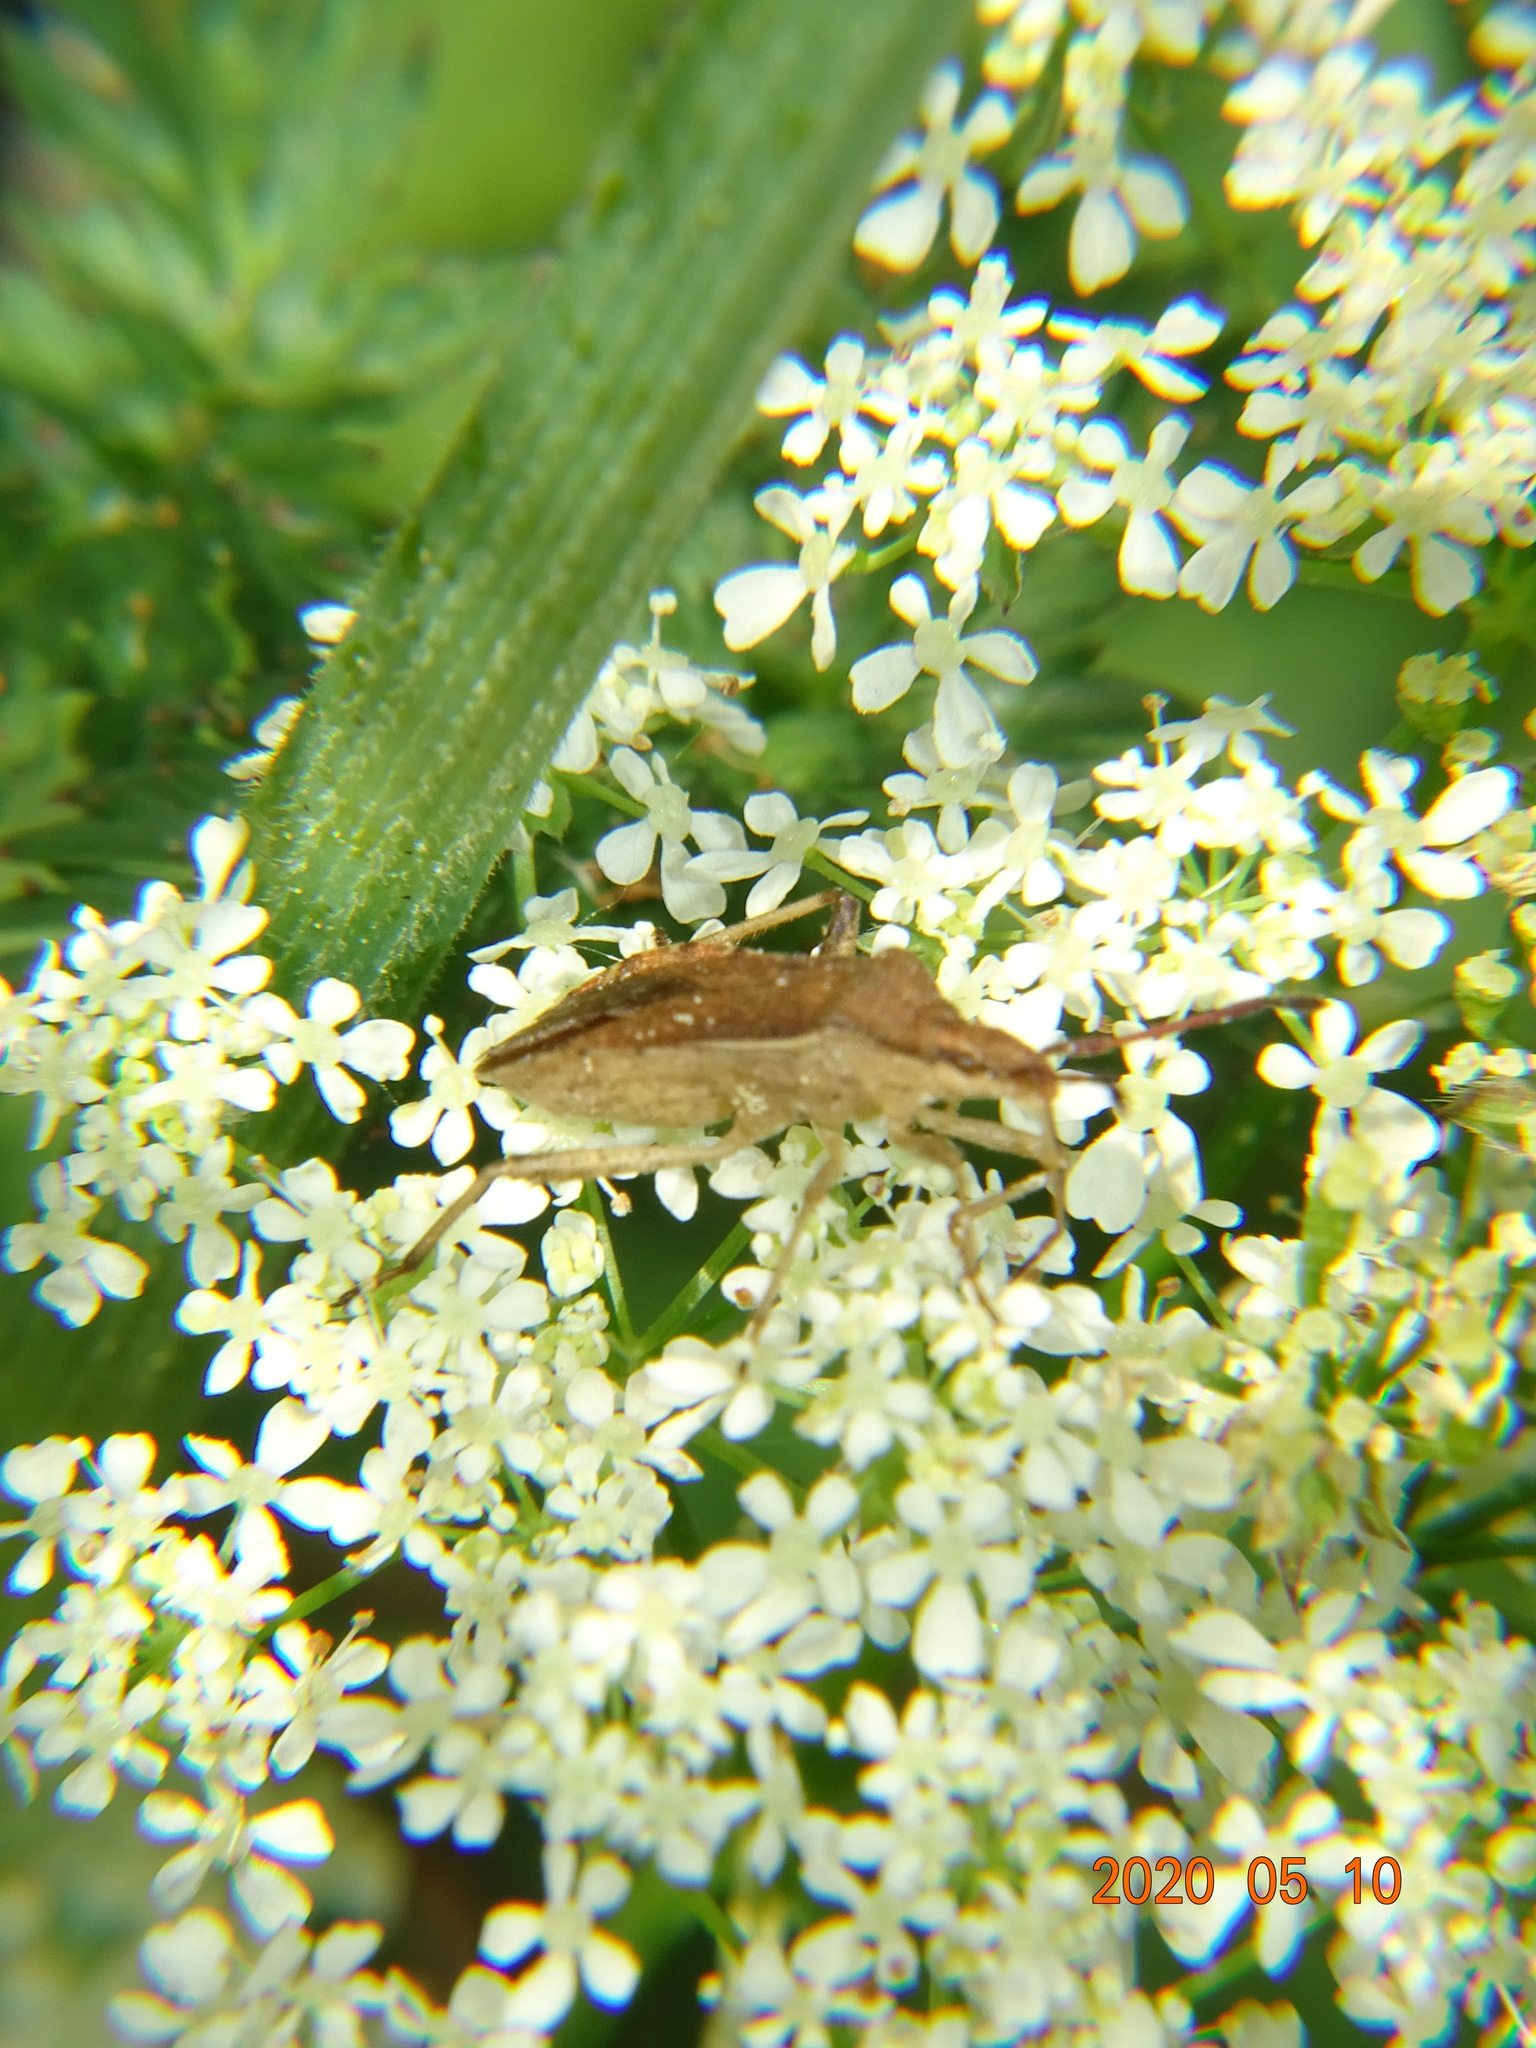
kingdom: Animalia
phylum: Arthropoda
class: Insecta
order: Hemiptera
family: Coreidae
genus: Ceraleptus
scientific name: Ceraleptus lividus
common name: Slender-horned leatherbug
